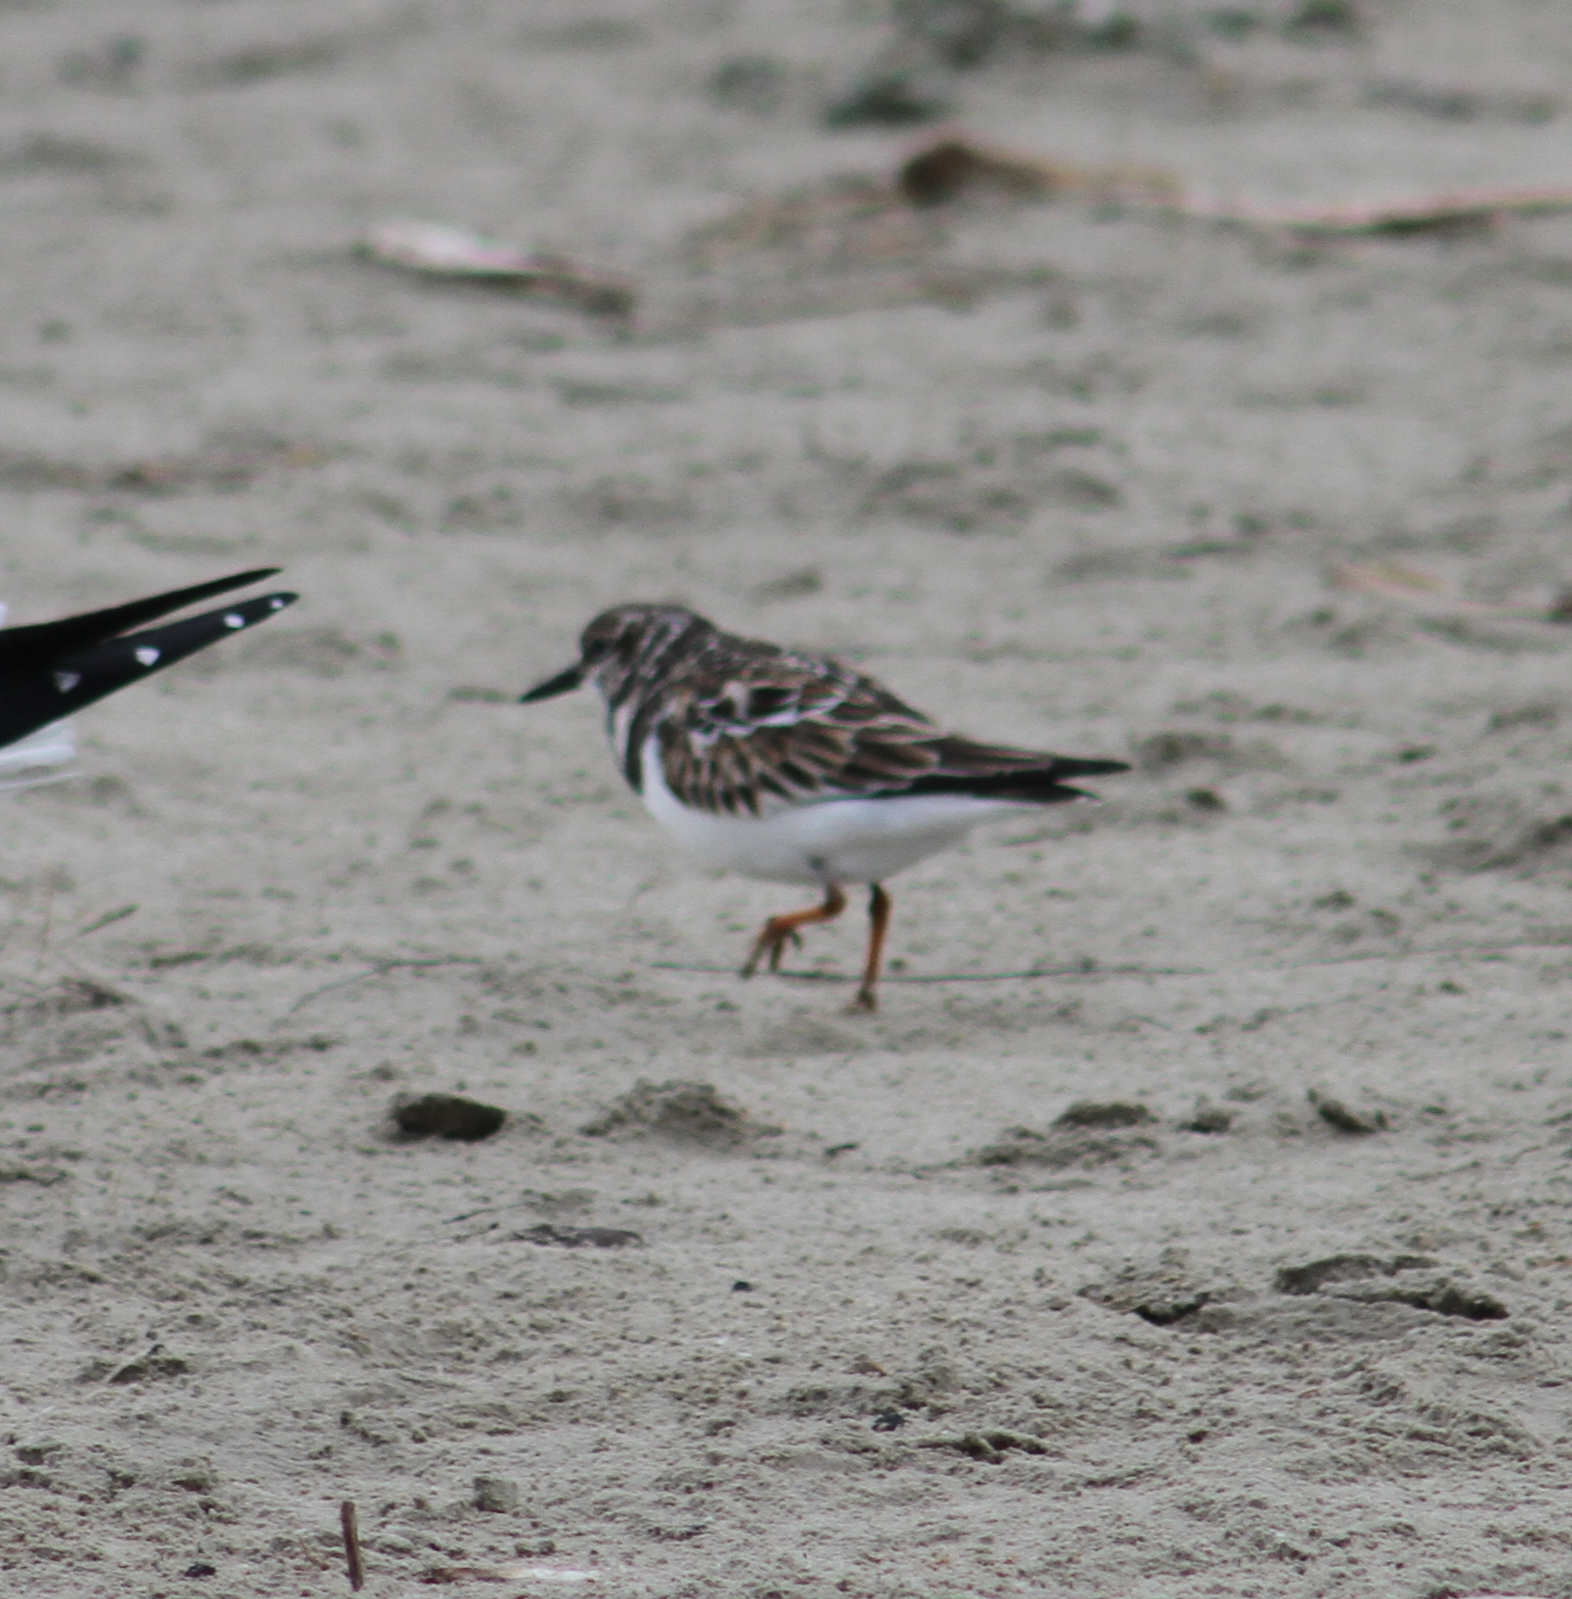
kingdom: Animalia
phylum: Chordata
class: Aves
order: Charadriiformes
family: Scolopacidae
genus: Arenaria
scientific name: Arenaria interpres
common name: Ruddy turnstone
